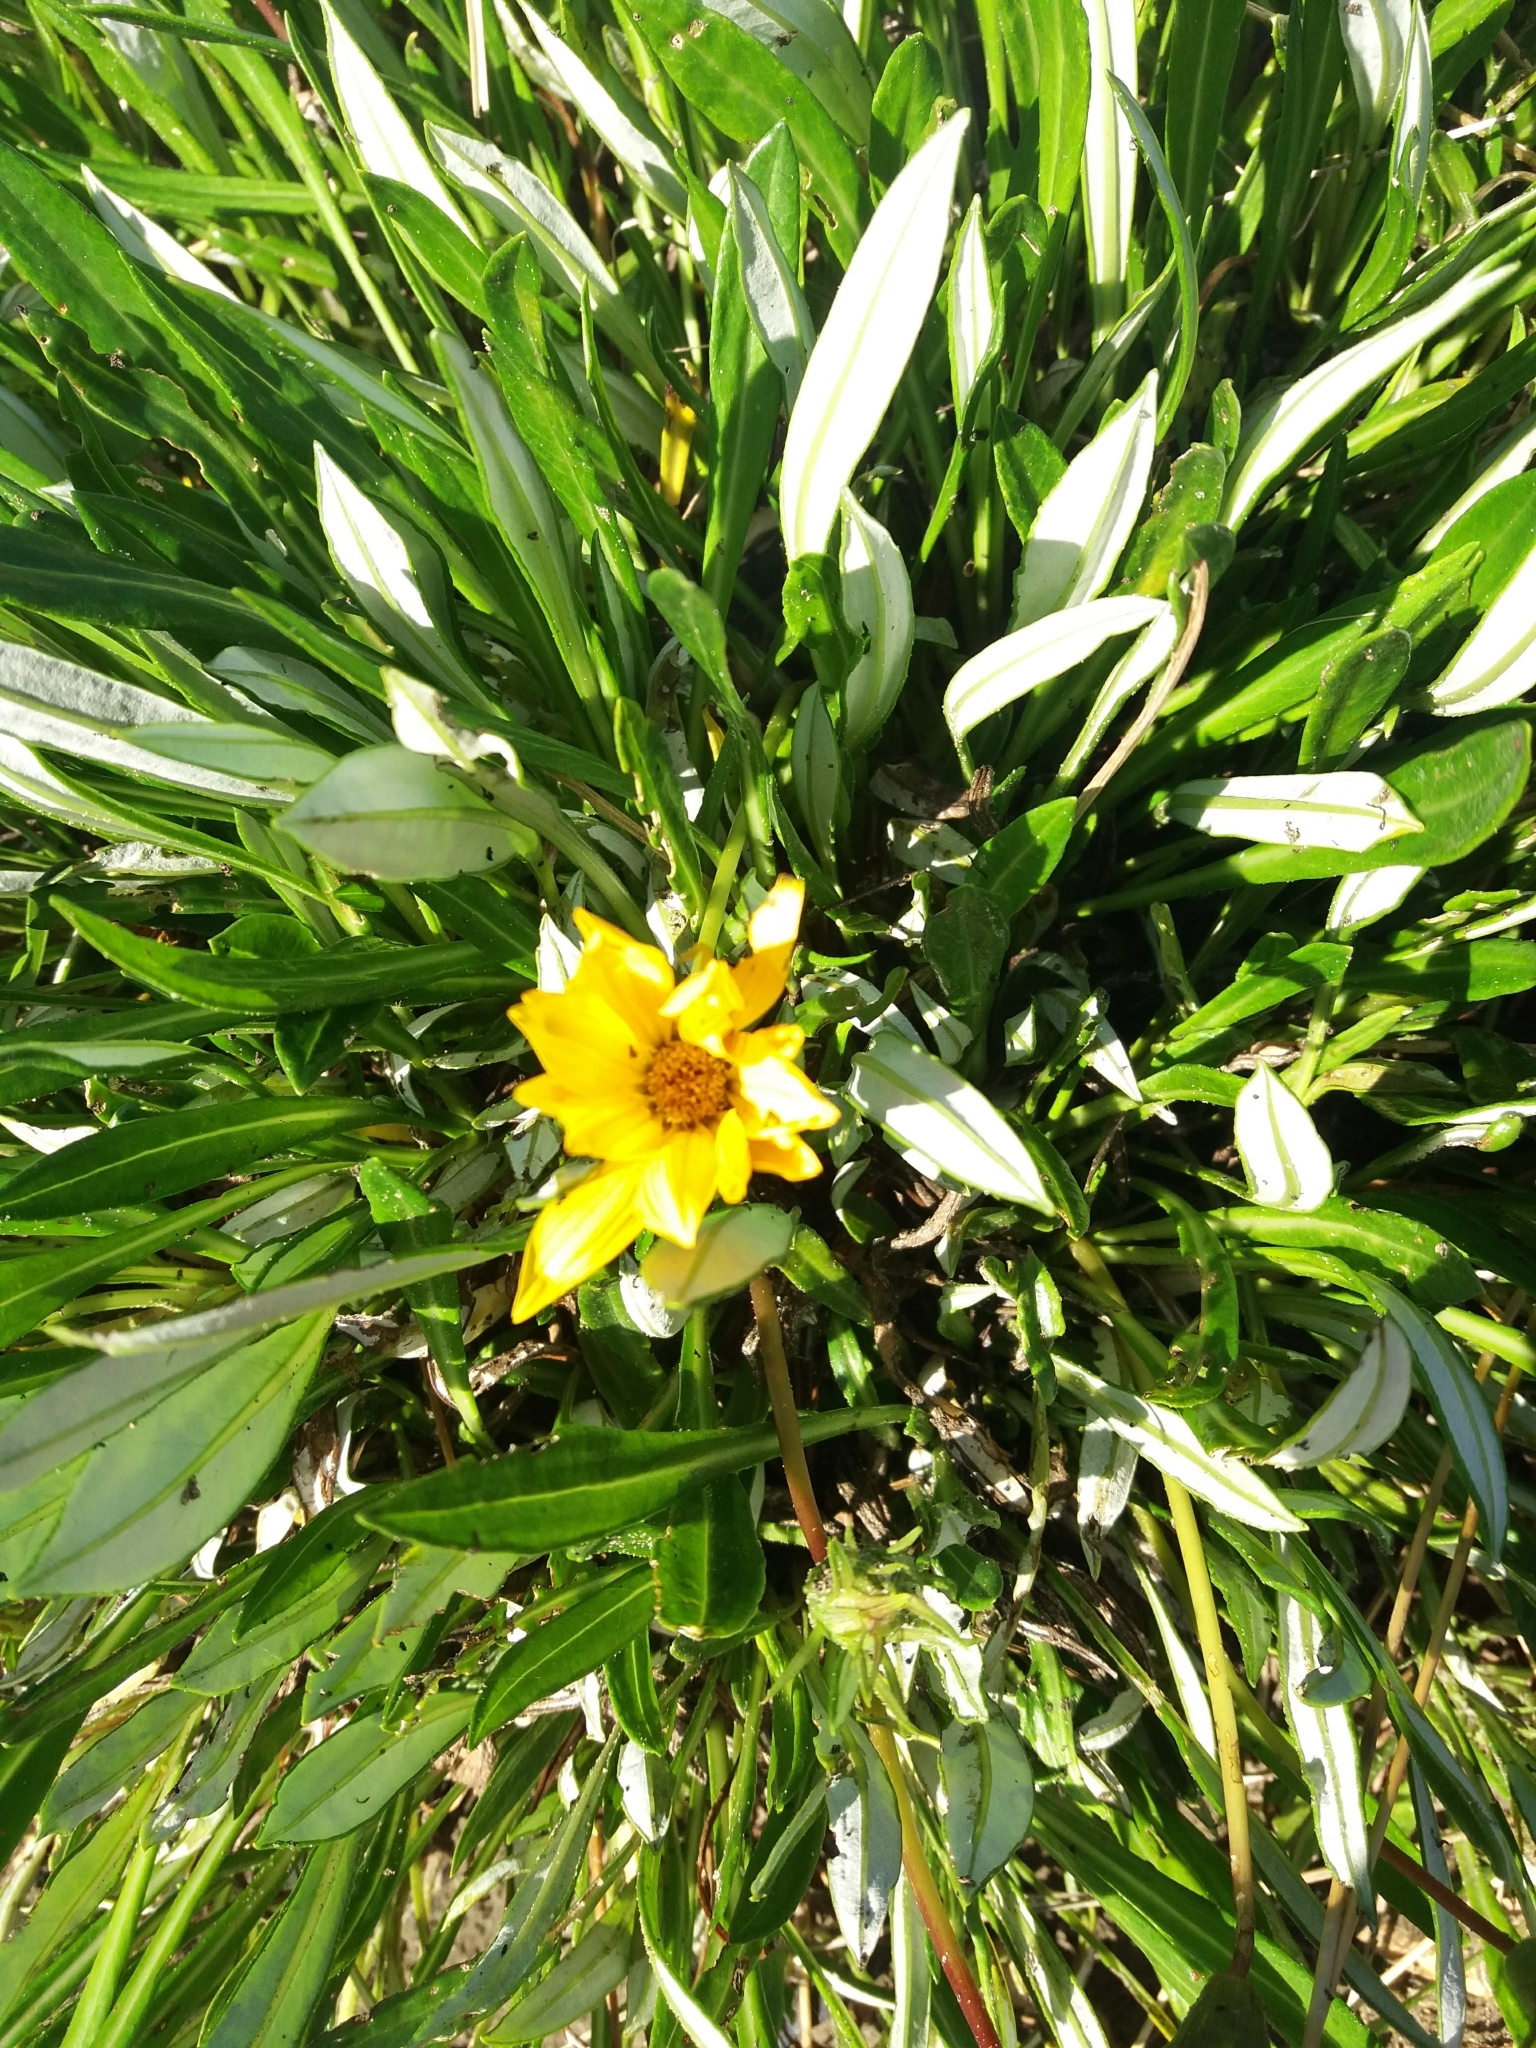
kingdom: Plantae
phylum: Tracheophyta
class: Magnoliopsida
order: Asterales
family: Asteraceae
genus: Gazania
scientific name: Gazania rigens
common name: Treasureflower
